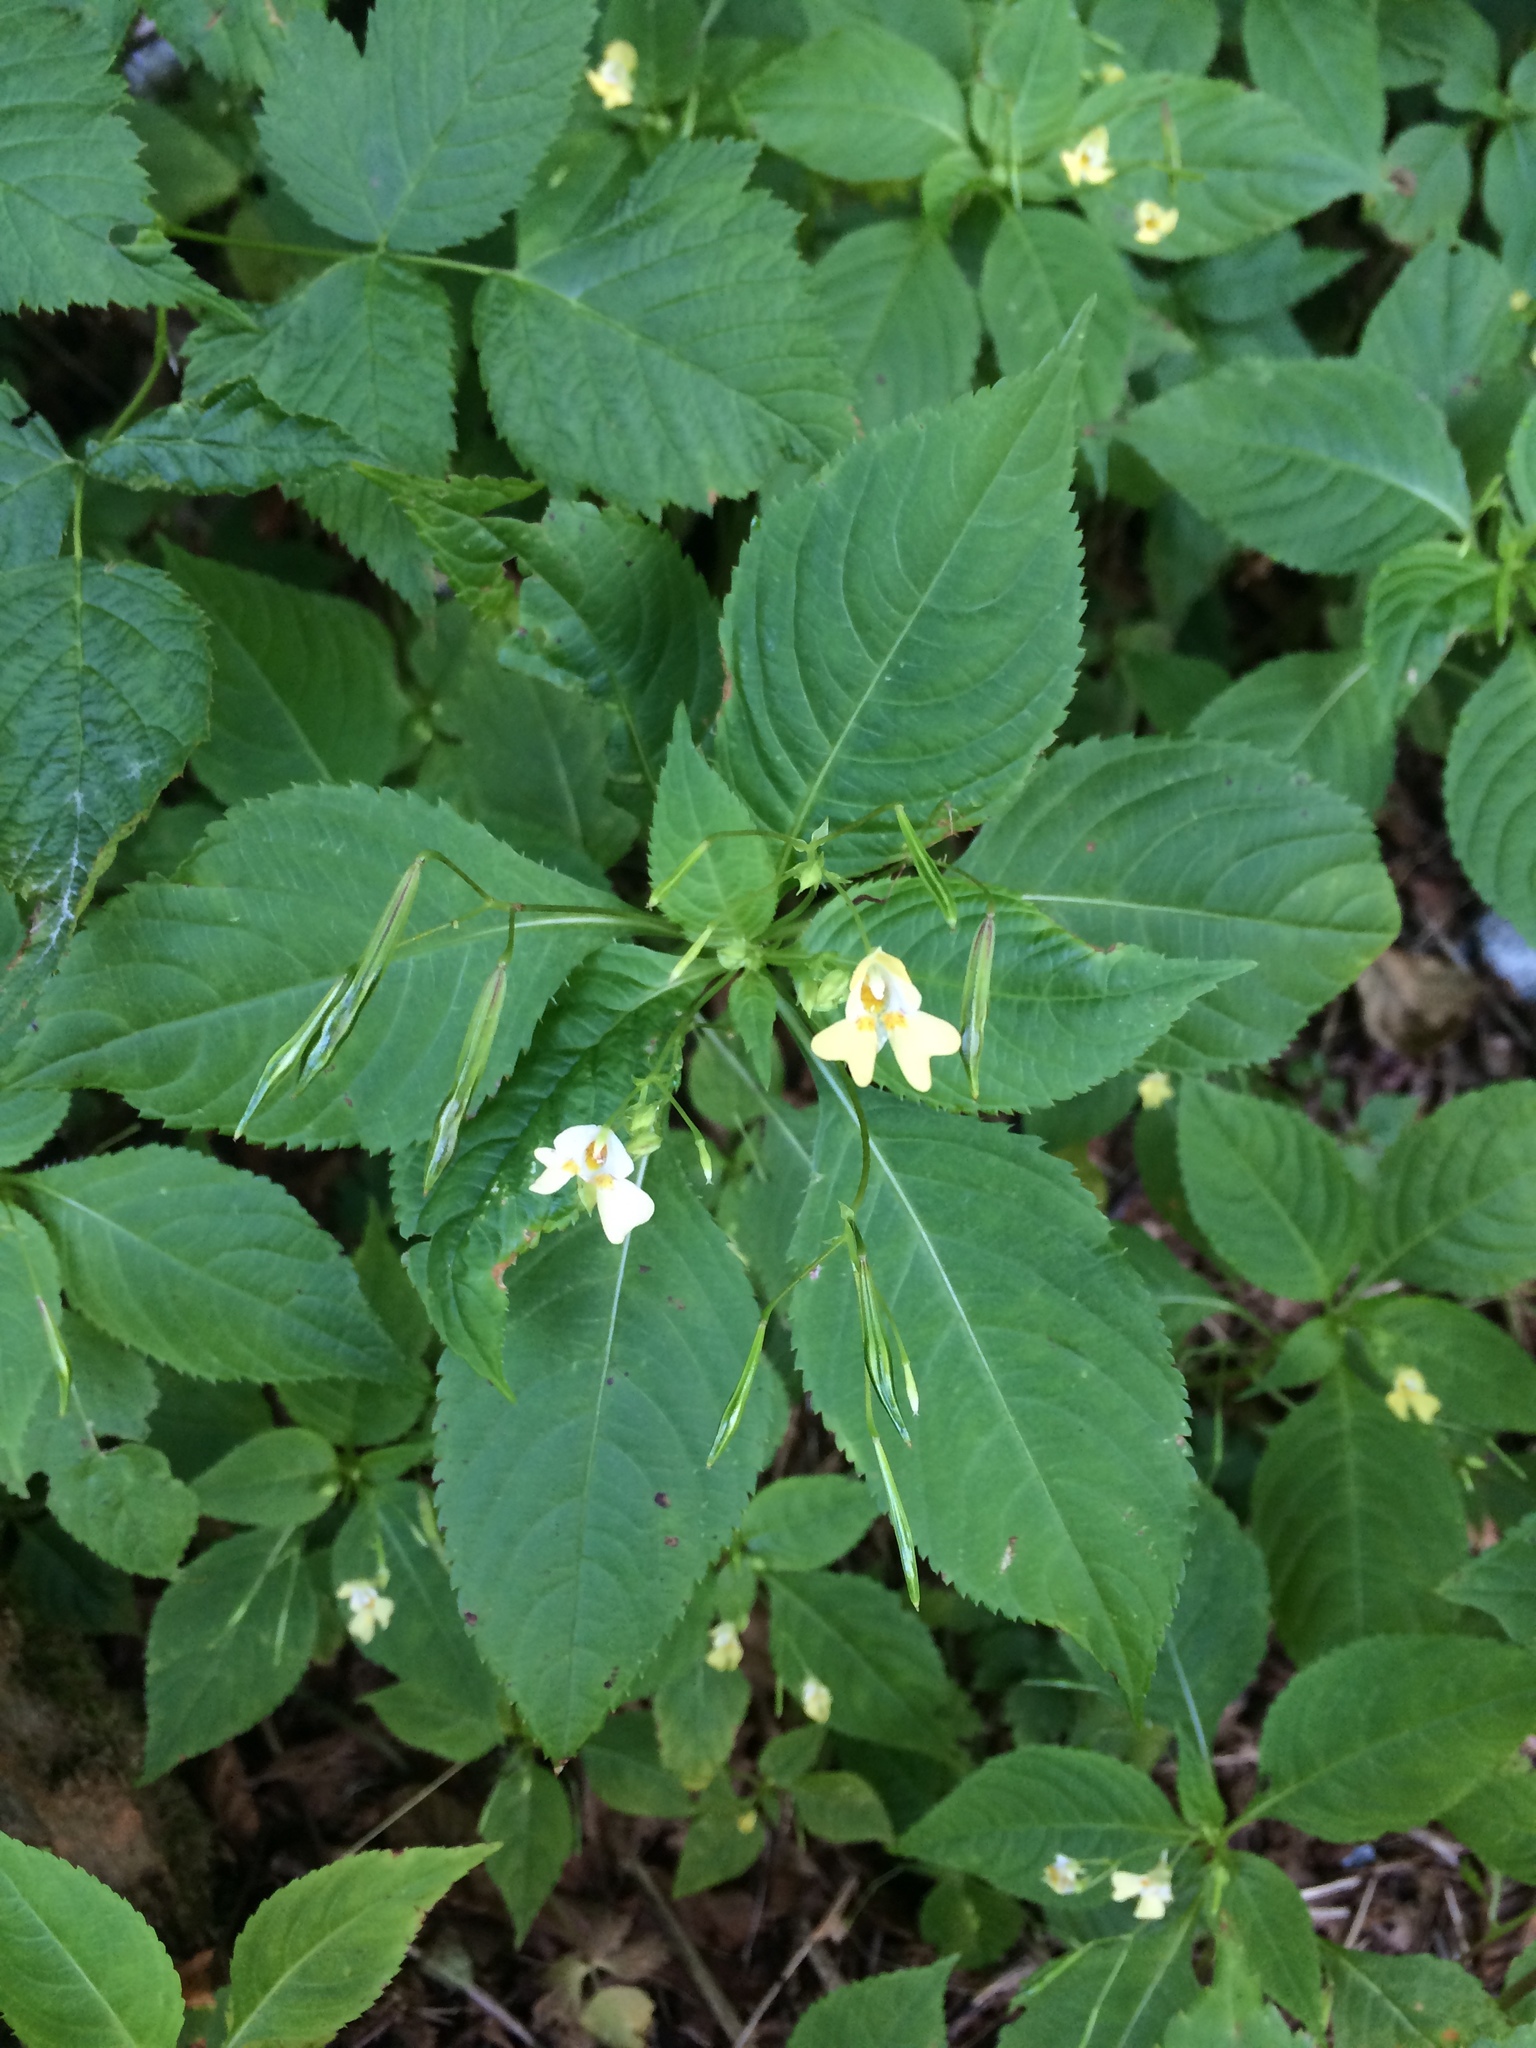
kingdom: Plantae
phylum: Tracheophyta
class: Magnoliopsida
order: Ericales
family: Balsaminaceae
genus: Impatiens
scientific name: Impatiens parviflora
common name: Small balsam
